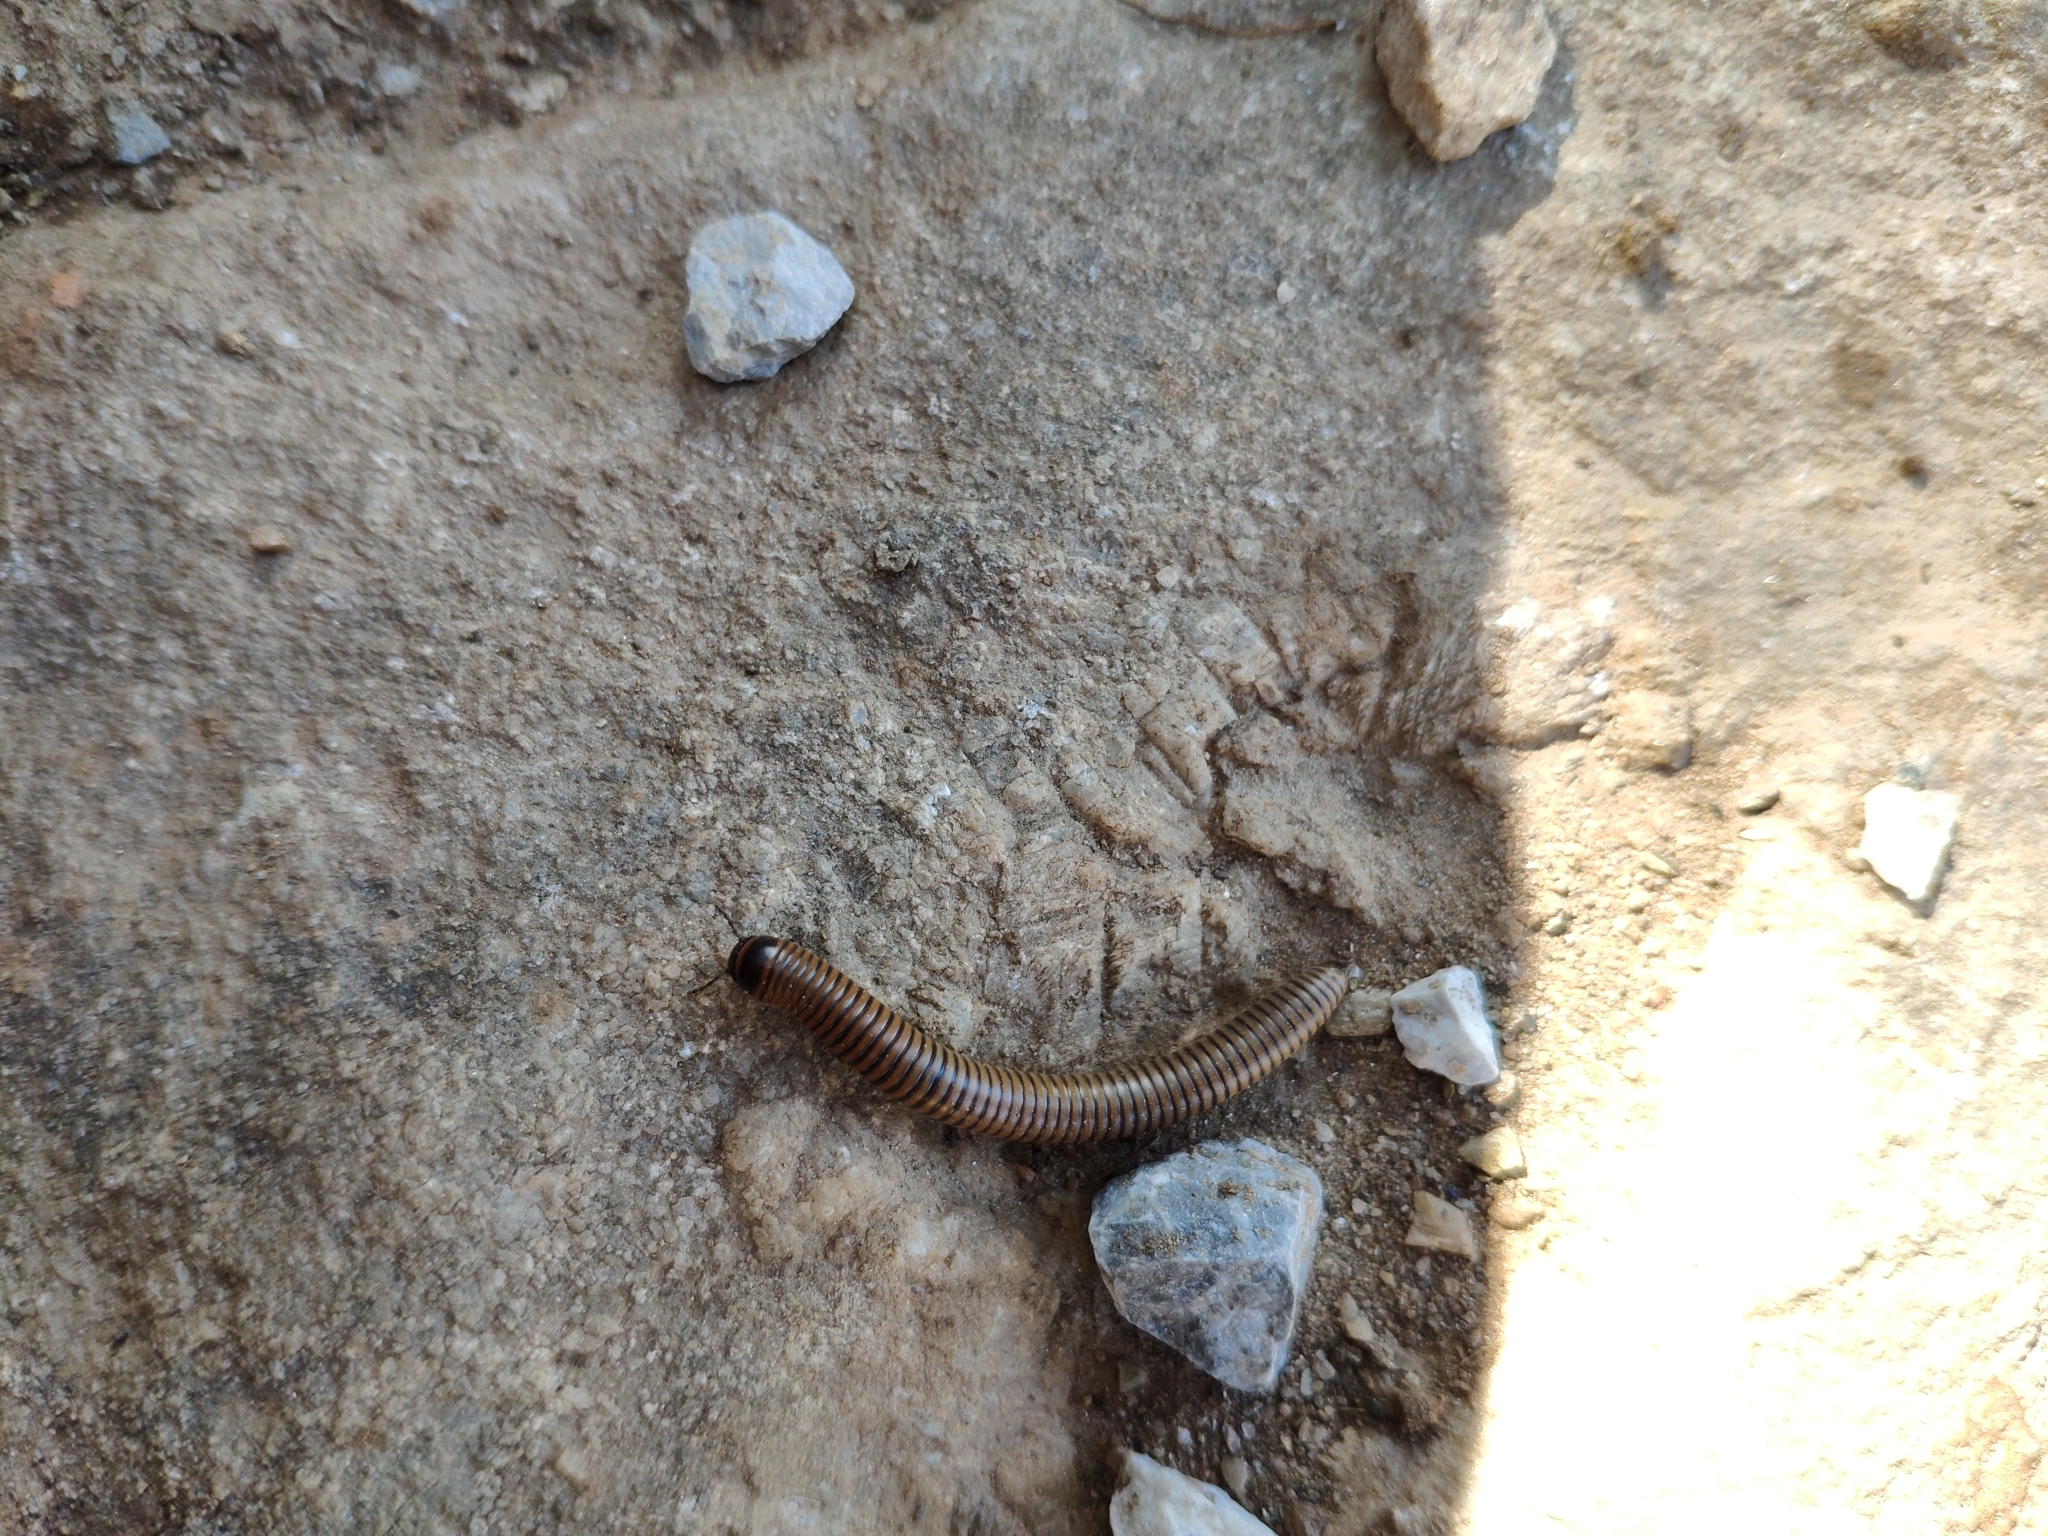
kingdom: Animalia
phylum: Arthropoda
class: Diplopoda
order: Julida
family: Julidae
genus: Paectophyllum
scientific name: Paectophyllum escherichii
